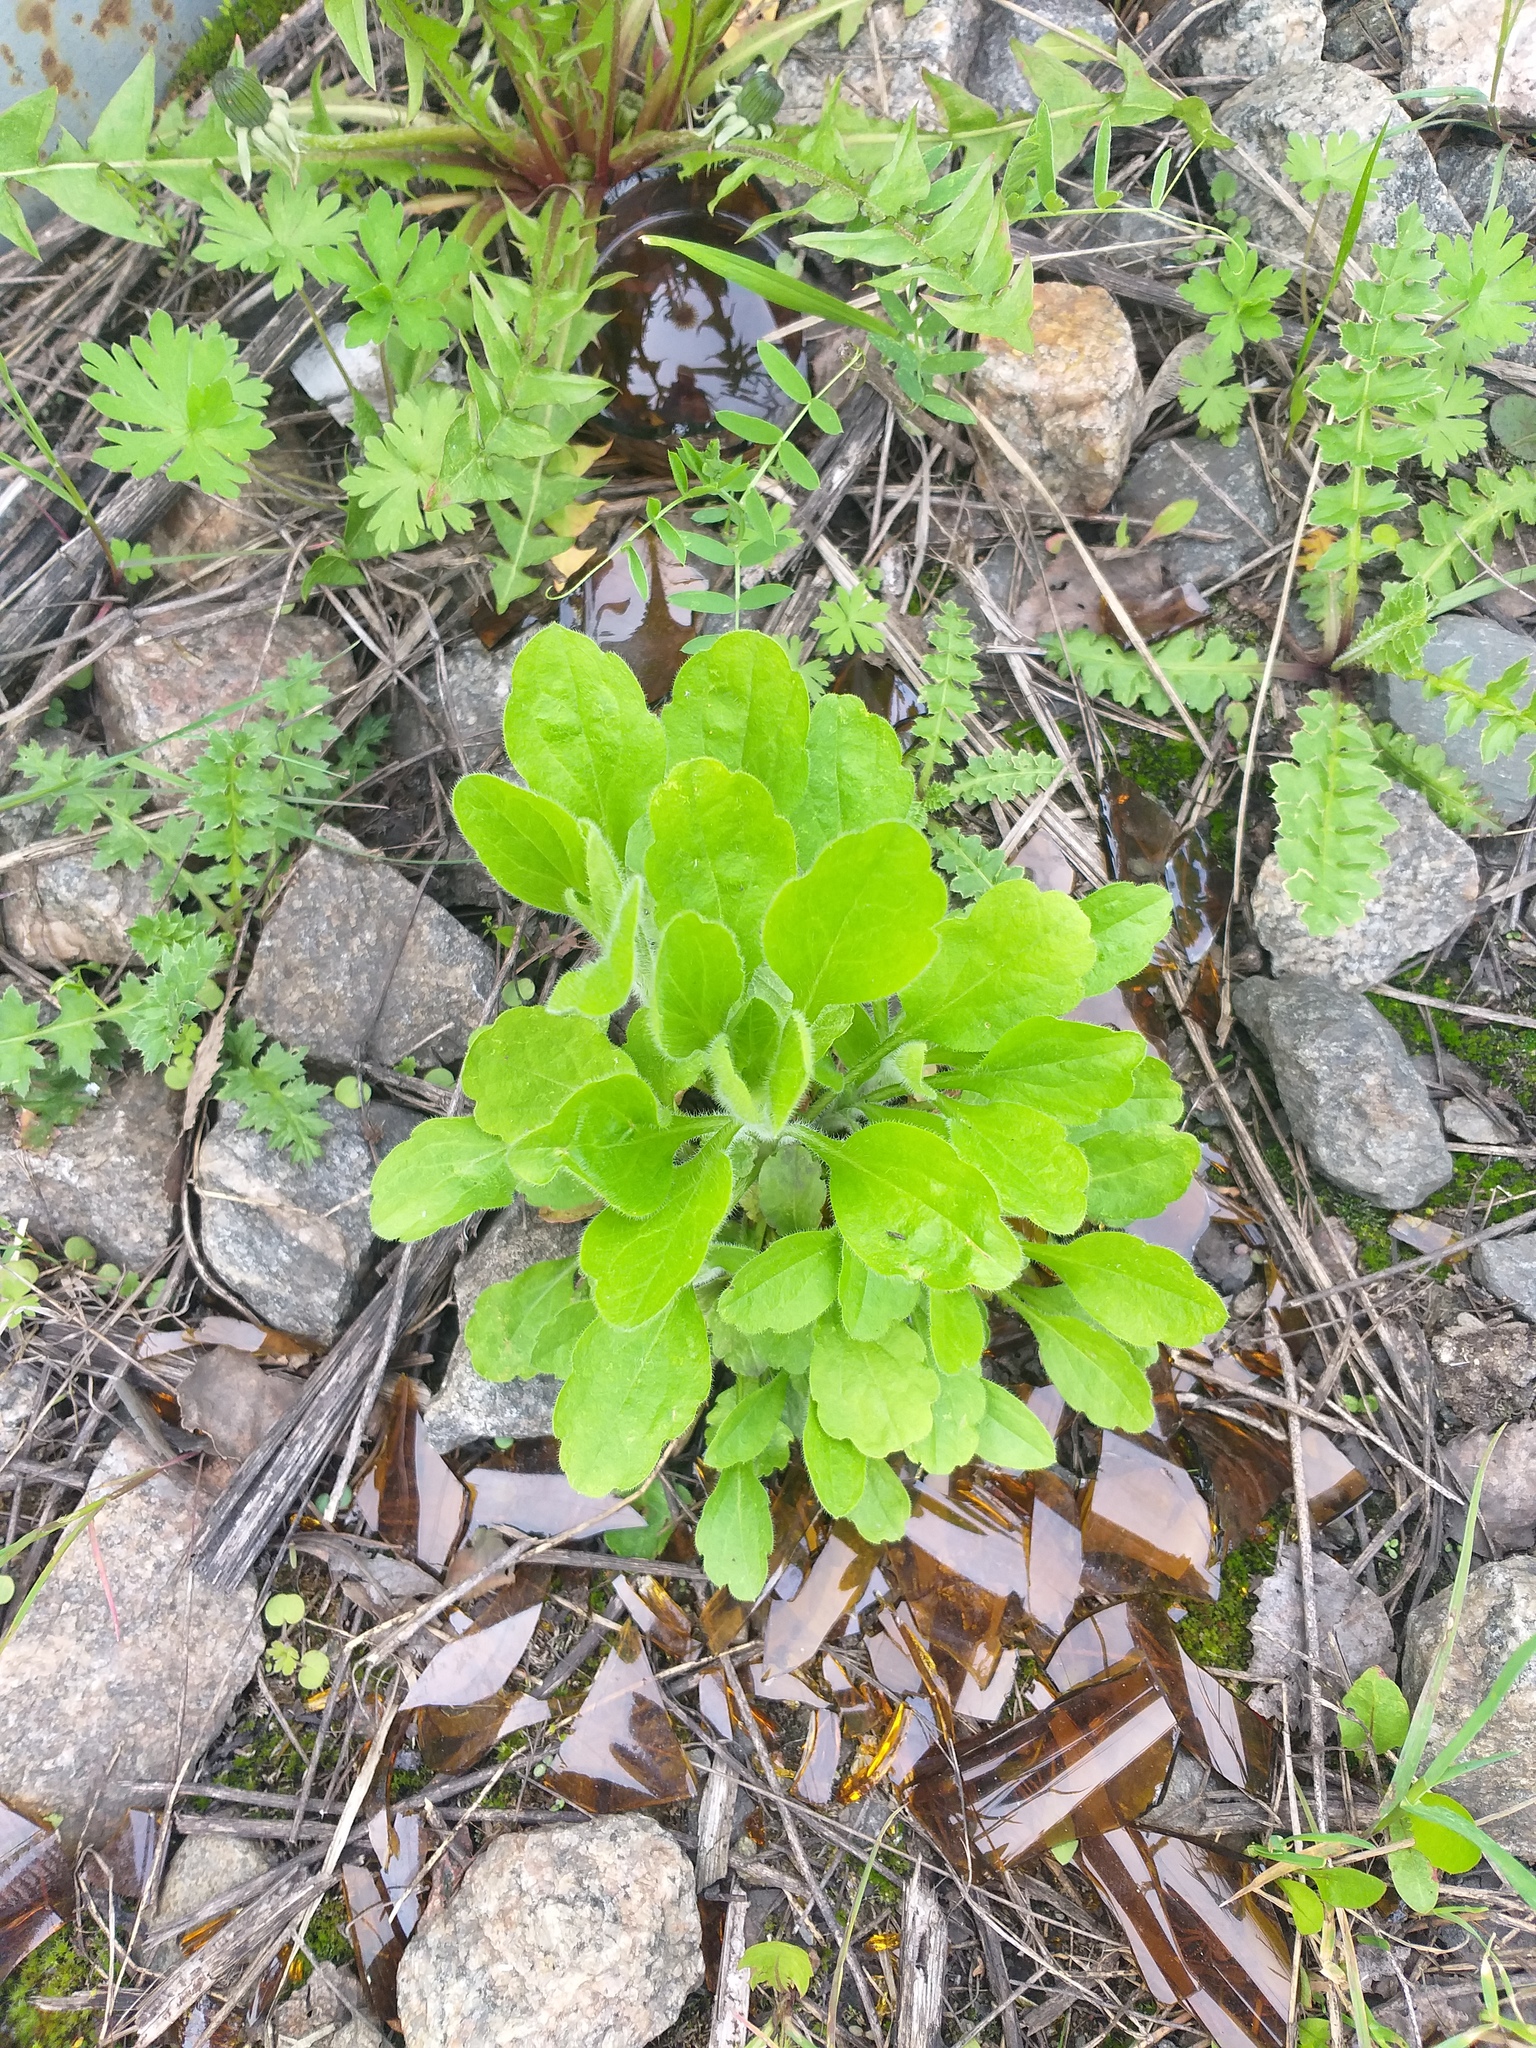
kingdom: Plantae
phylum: Tracheophyta
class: Magnoliopsida
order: Asterales
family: Asteraceae
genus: Erigeron
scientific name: Erigeron annuus
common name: Tall fleabane
